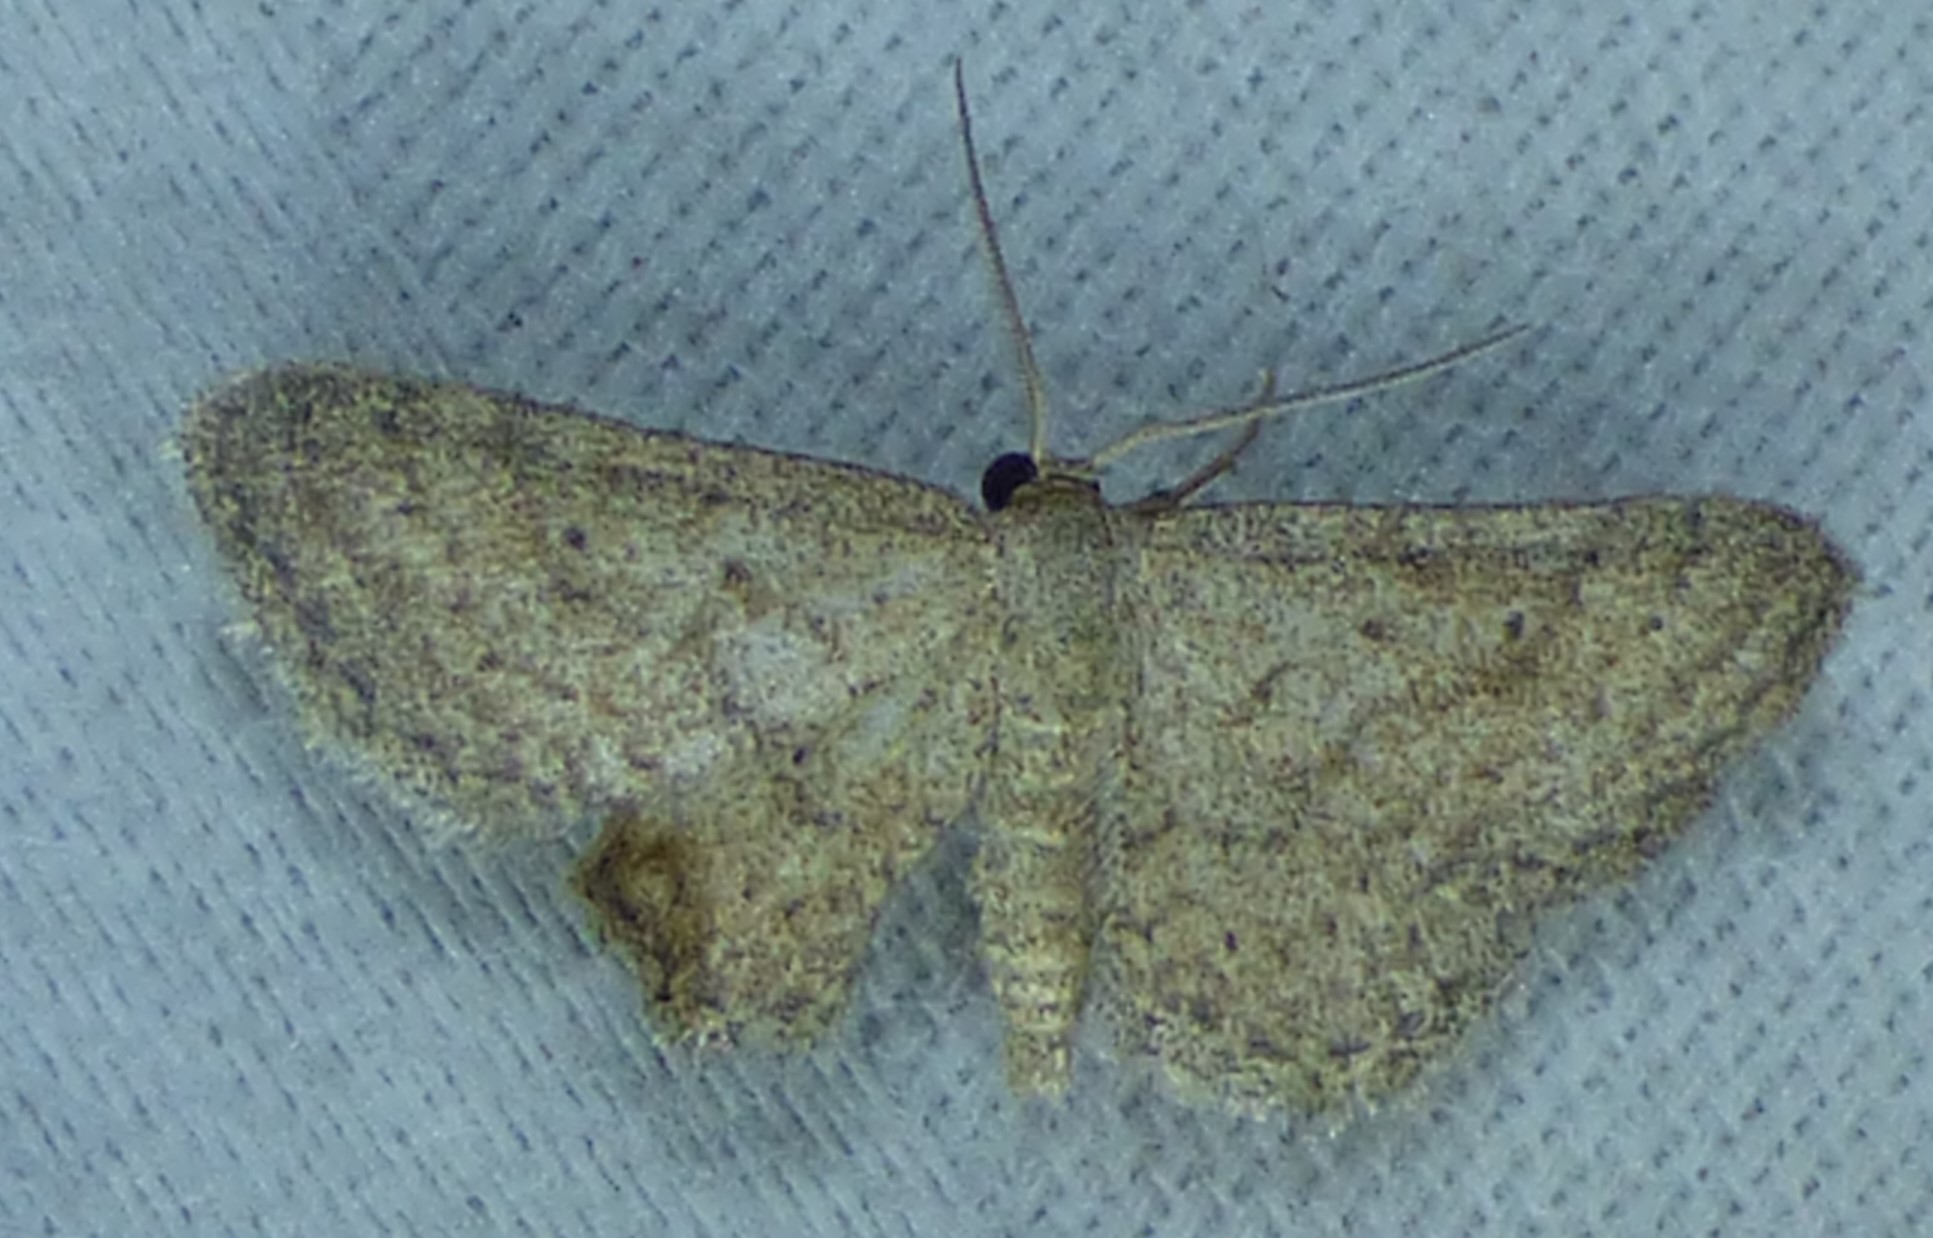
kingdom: Animalia
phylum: Arthropoda
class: Insecta
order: Lepidoptera
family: Geometridae
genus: Lobocleta
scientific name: Lobocleta ossularia
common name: Drab brown wave
